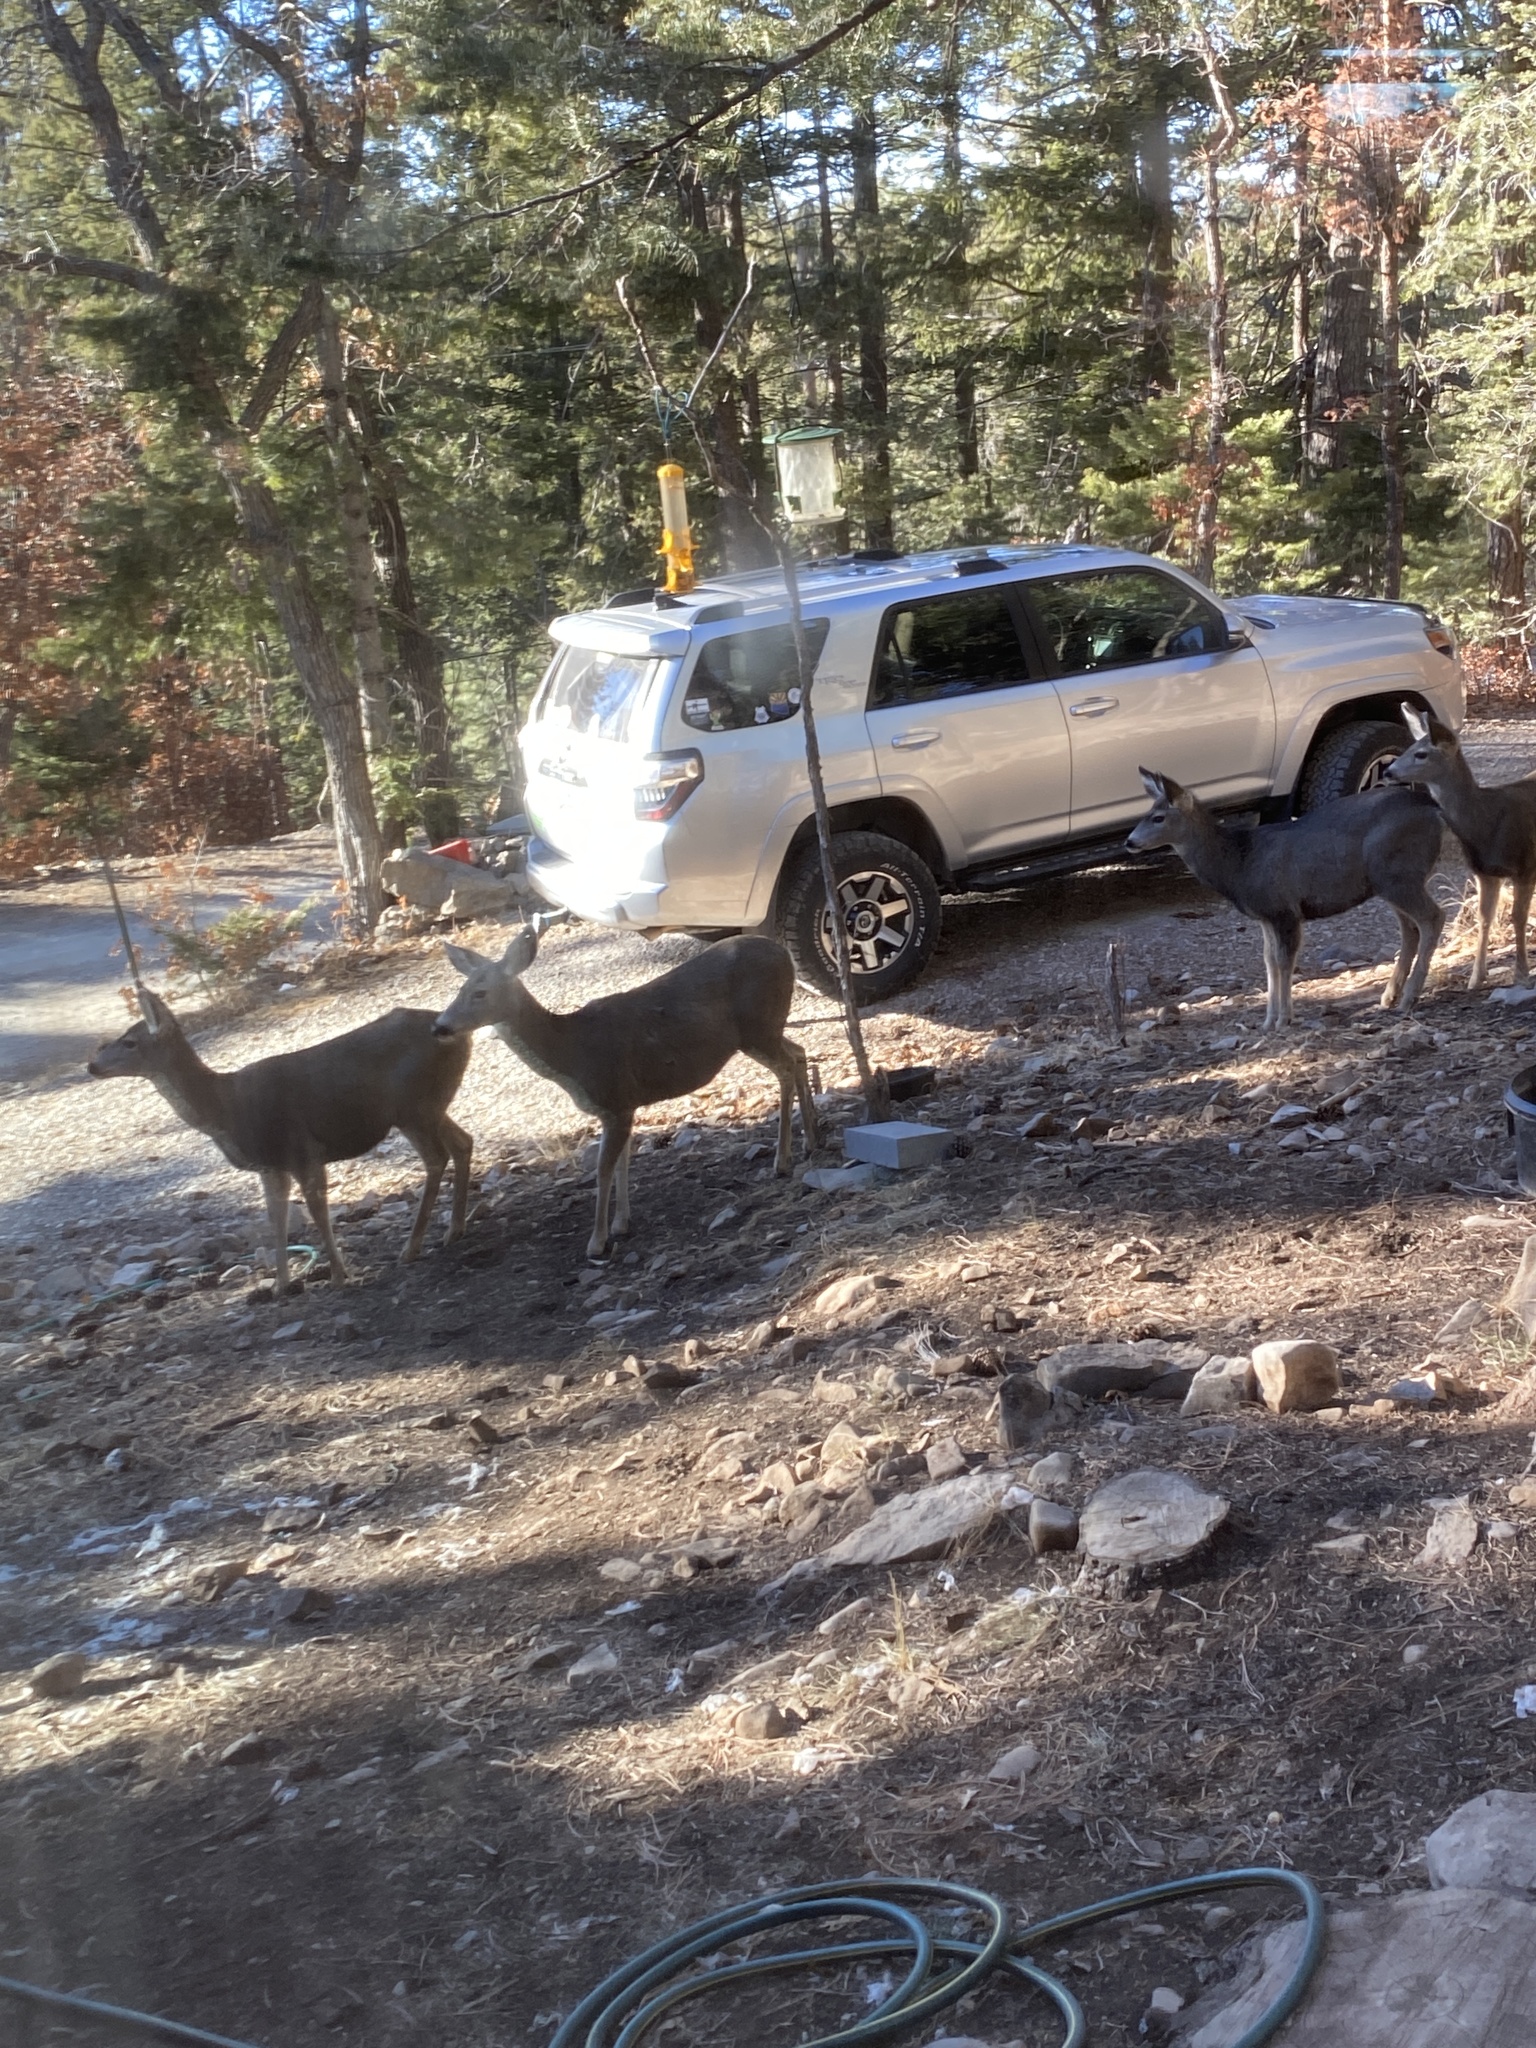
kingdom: Animalia
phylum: Chordata
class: Mammalia
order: Artiodactyla
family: Cervidae
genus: Odocoileus
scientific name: Odocoileus hemionus
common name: Mule deer
